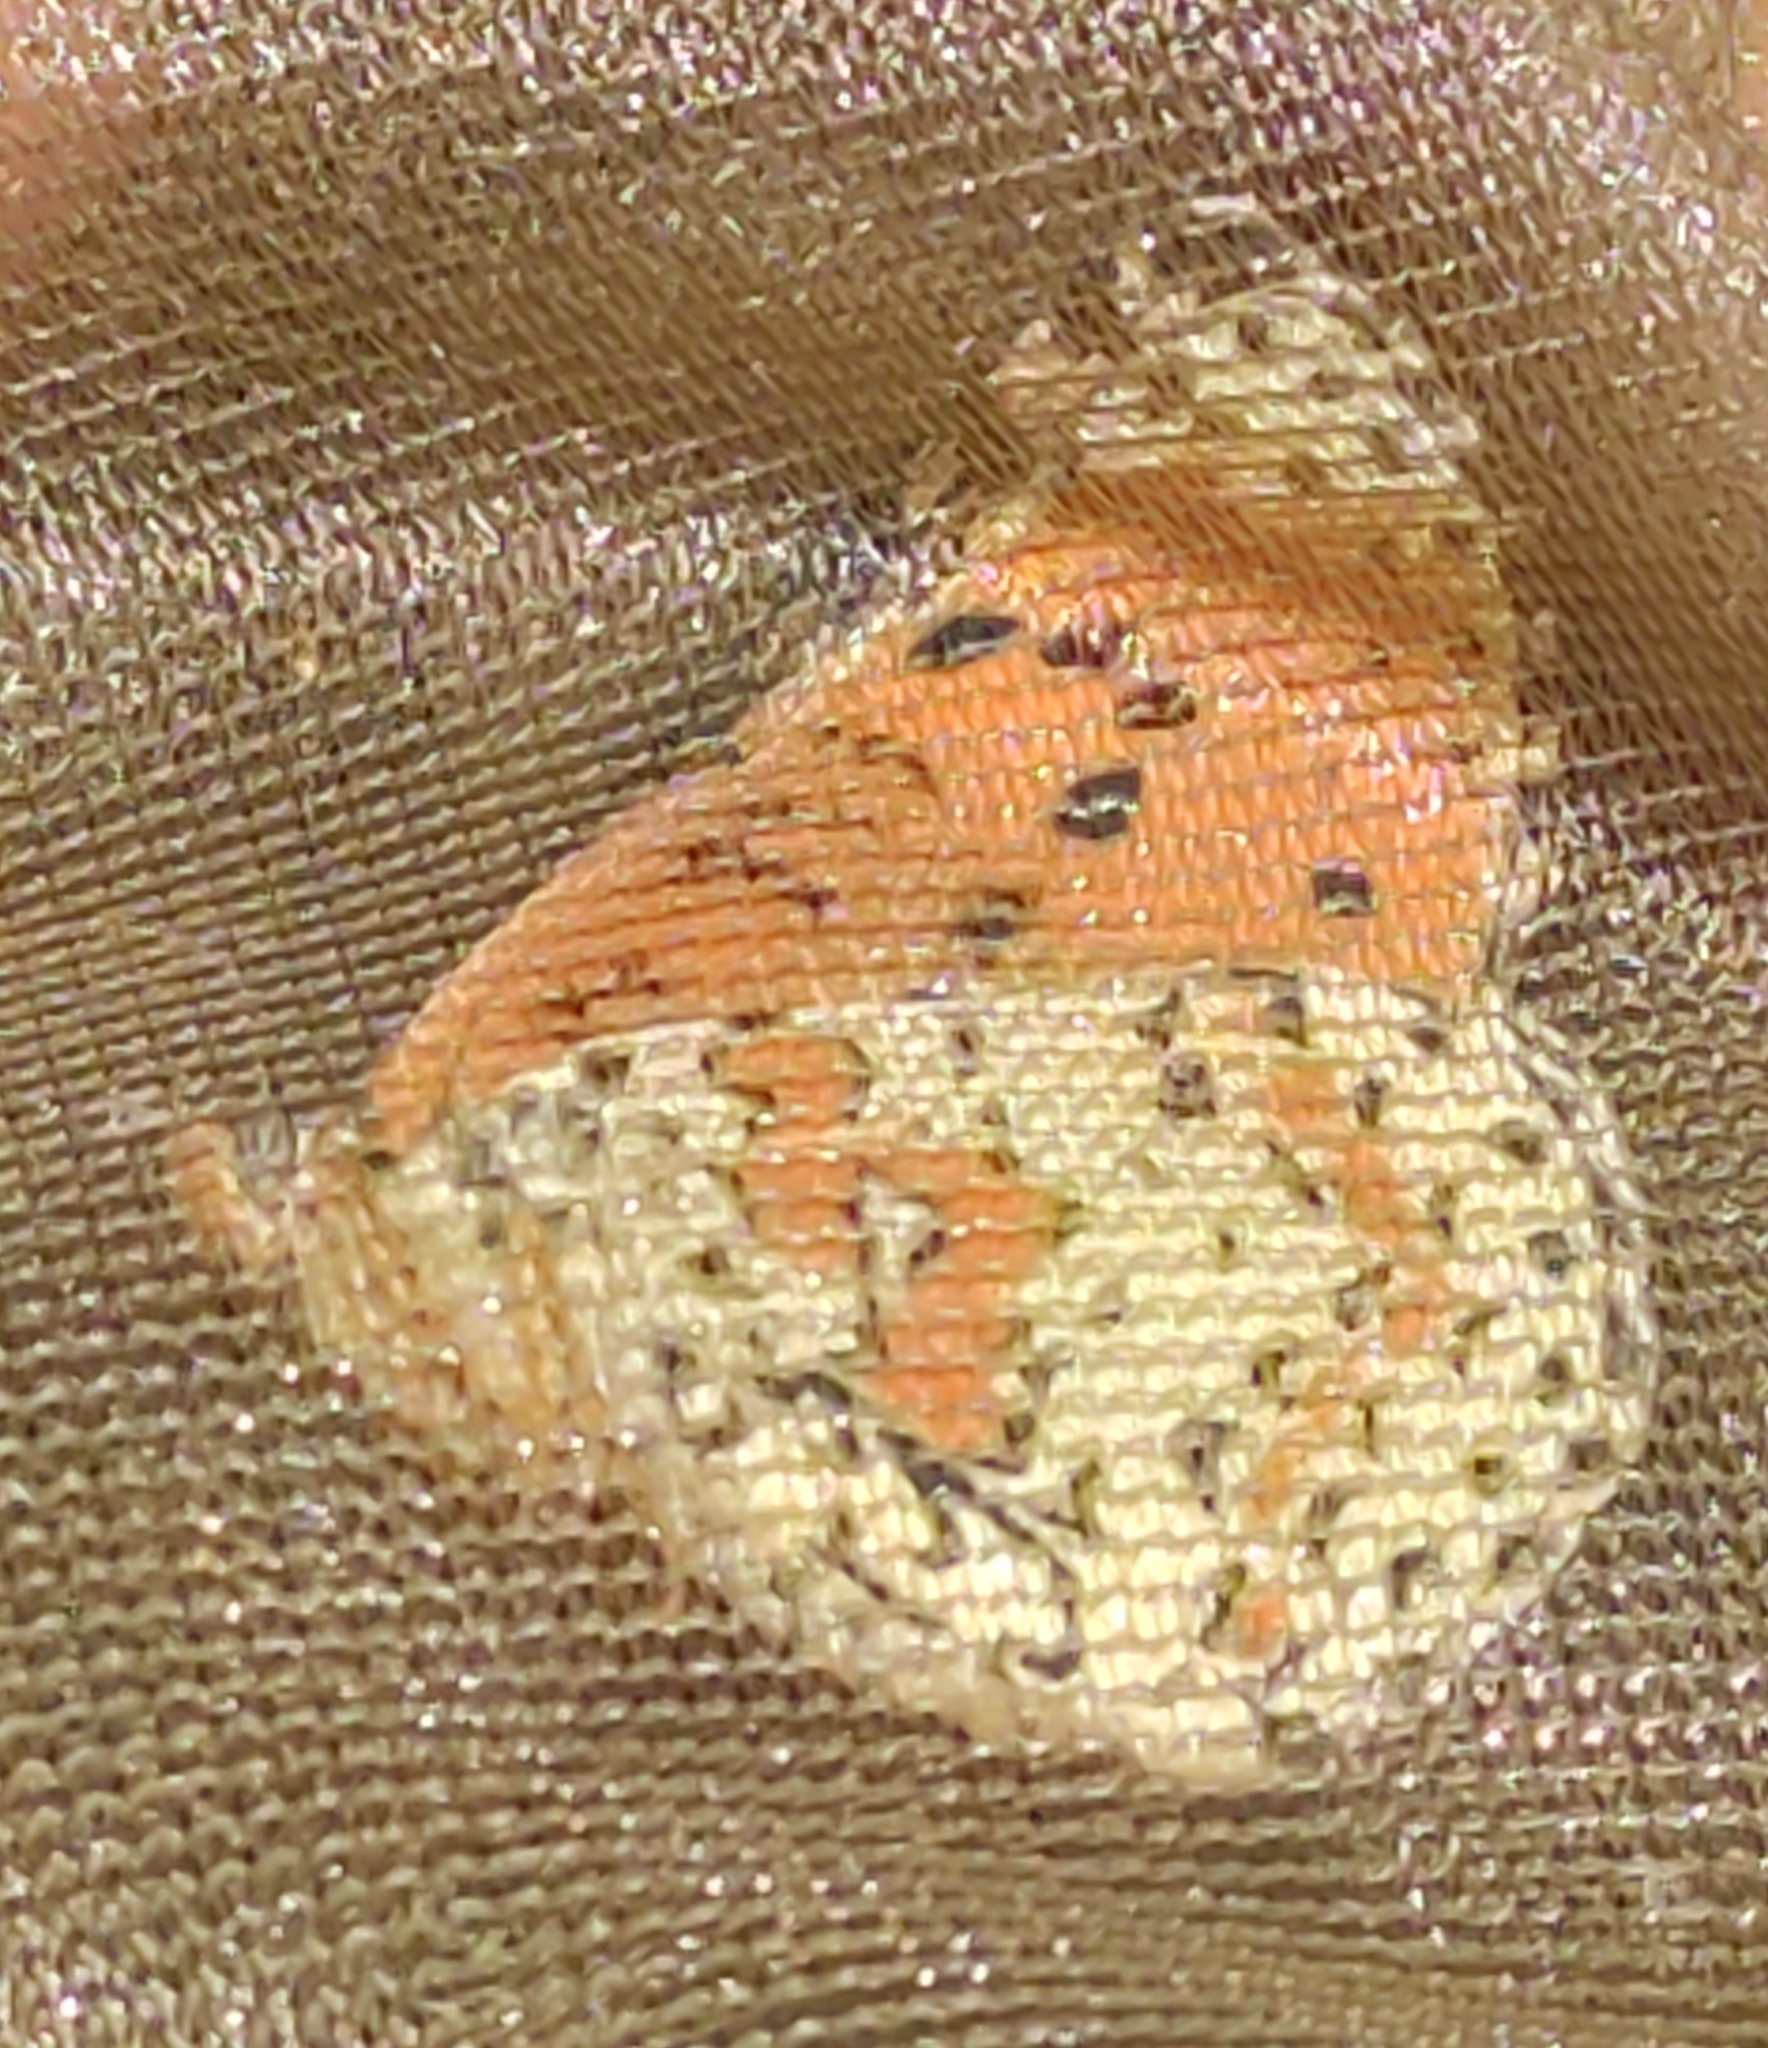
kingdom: Animalia
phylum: Arthropoda
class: Insecta
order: Lepidoptera
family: Nymphalidae
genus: Melitaea
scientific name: Melitaea didyma
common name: Spotted fritillary
